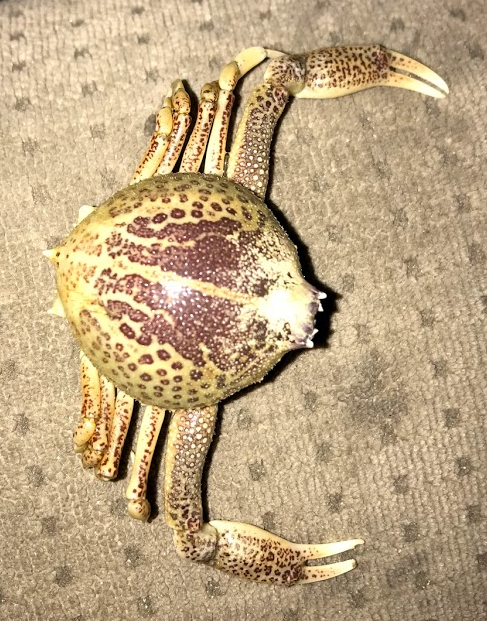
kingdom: Animalia
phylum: Arthropoda
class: Malacostraca
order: Decapoda
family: Leucosiidae
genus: Persephona
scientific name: Persephona aquilonaris
